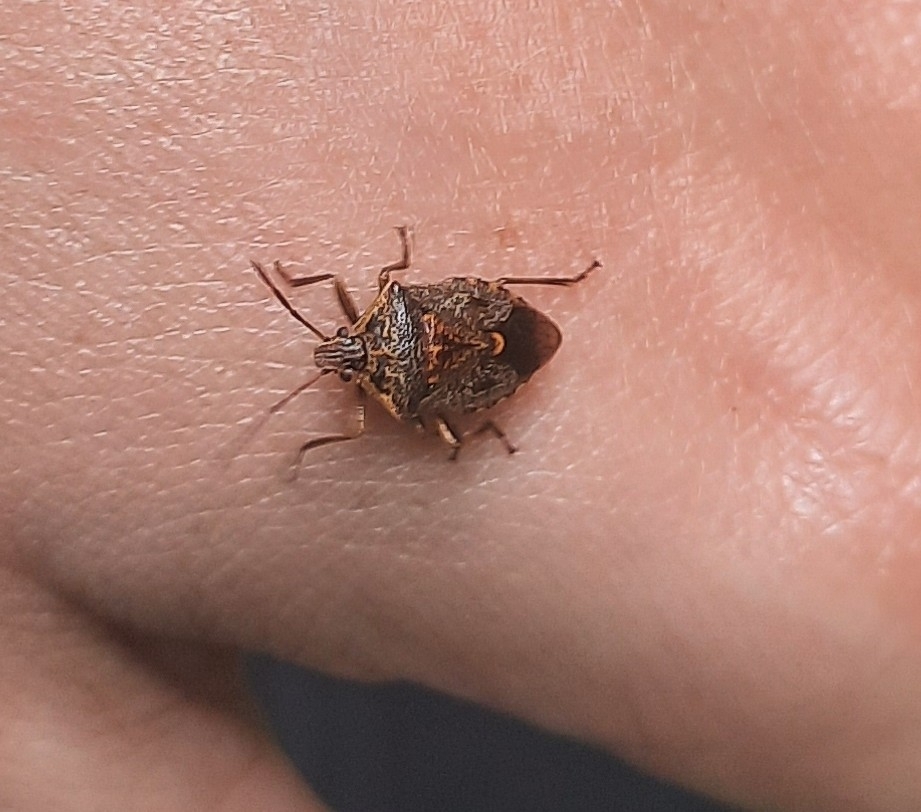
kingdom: Animalia
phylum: Arthropoda
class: Insecta
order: Hemiptera
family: Pentatomidae
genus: Cermatulus
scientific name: Cermatulus nasalis
